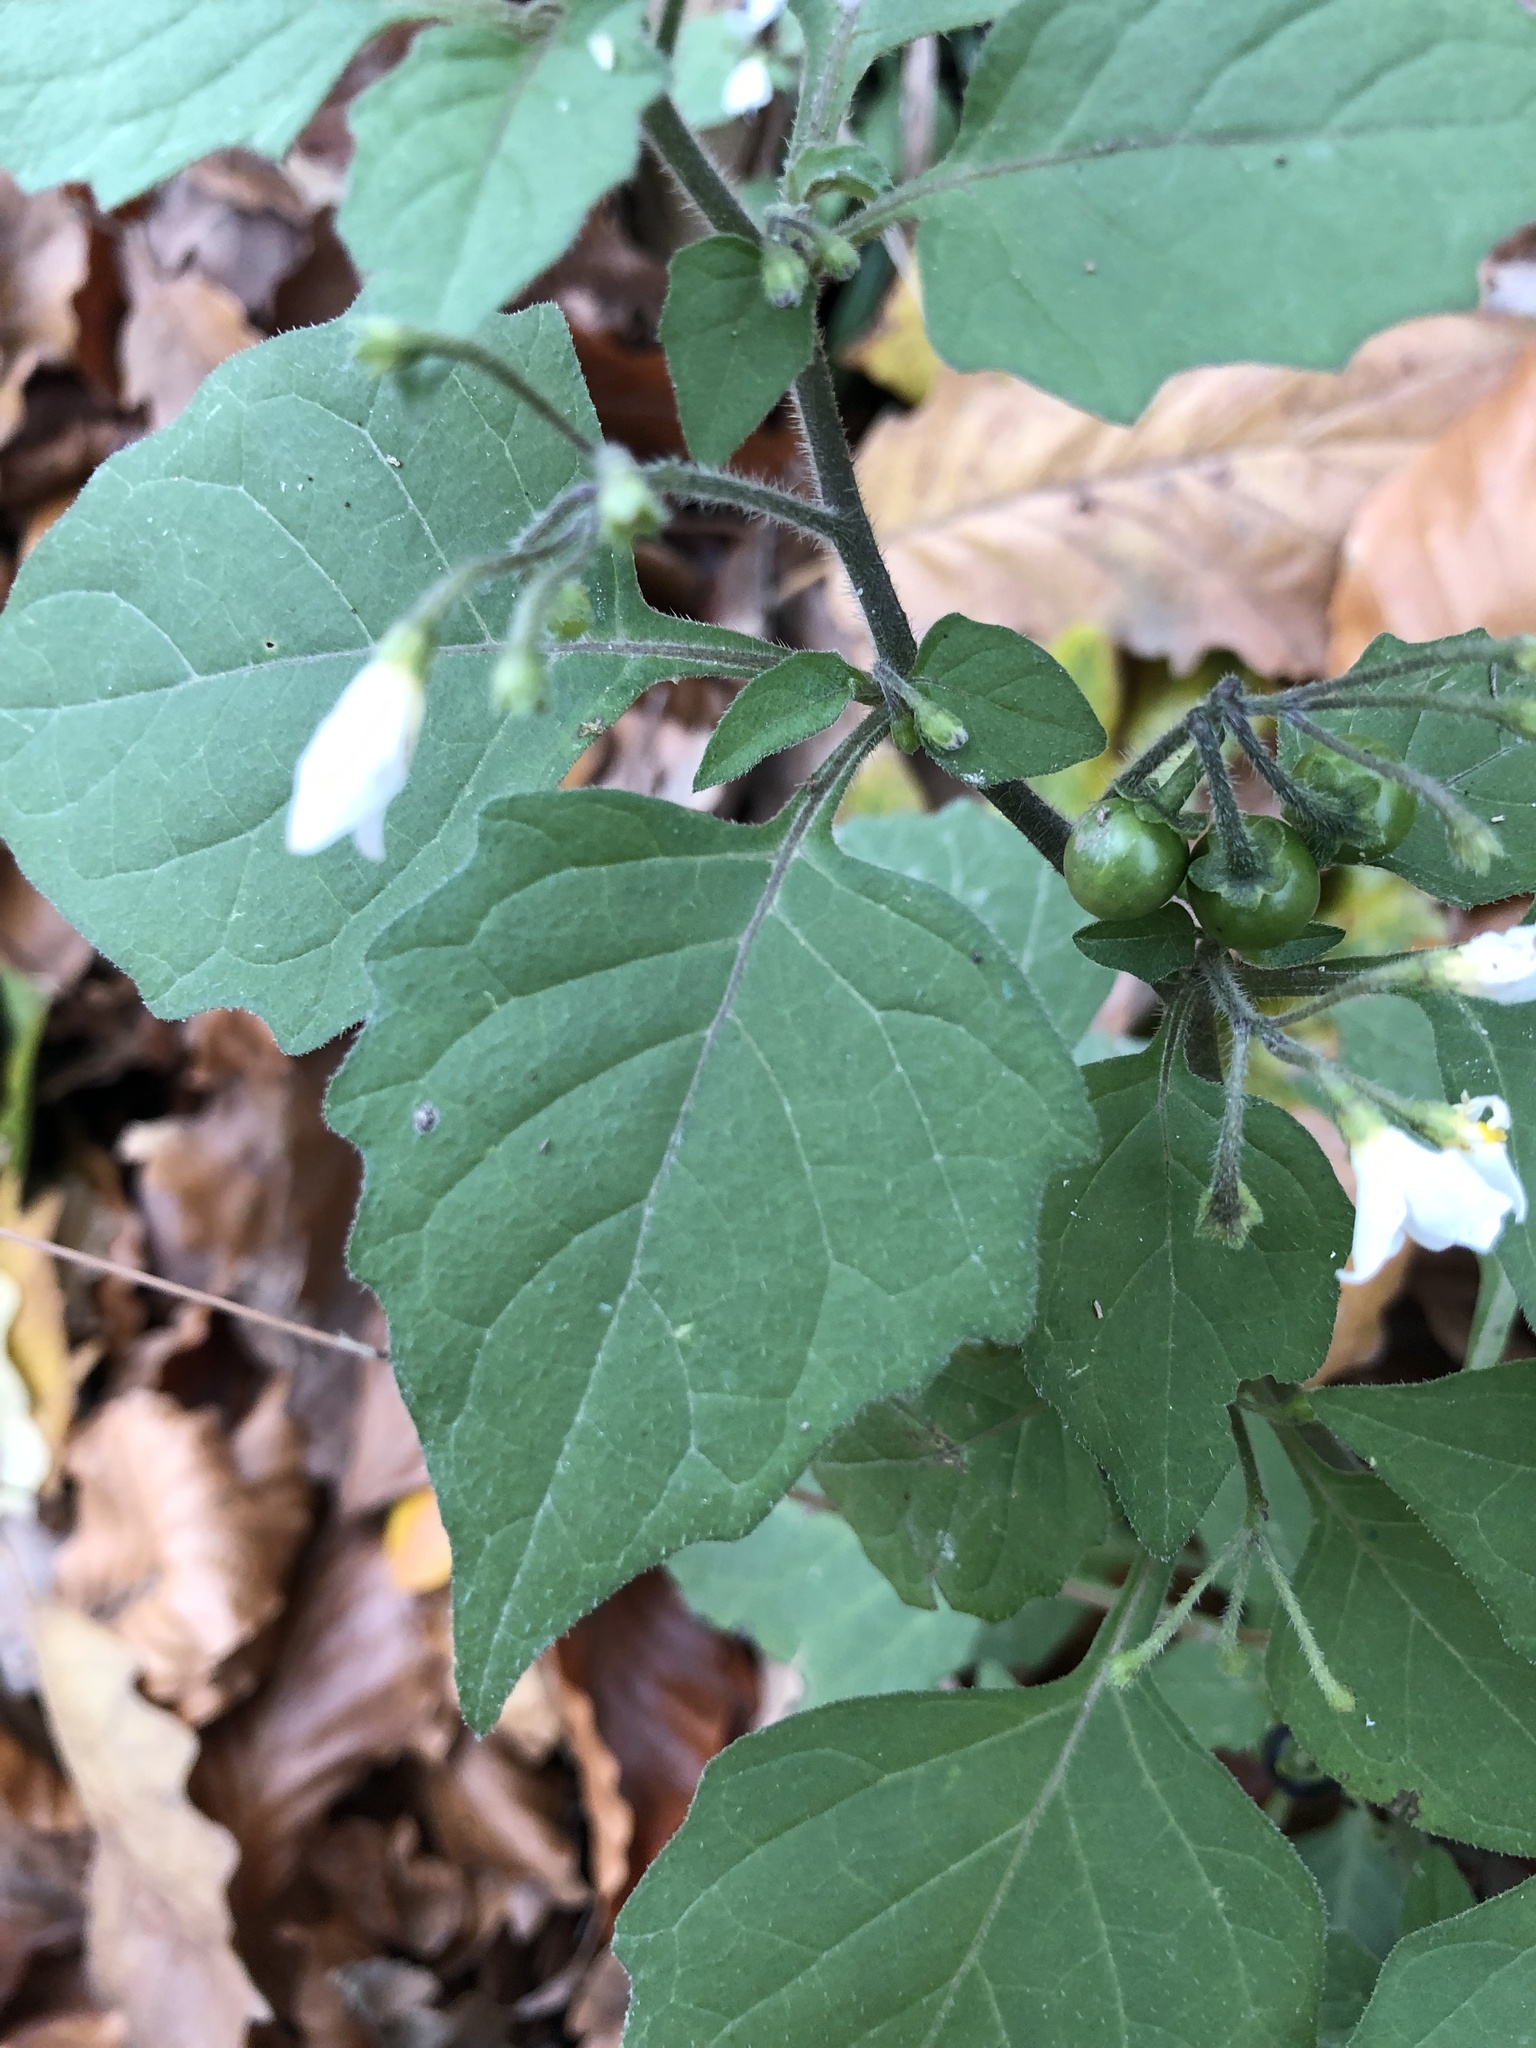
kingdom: Plantae
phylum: Tracheophyta
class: Magnoliopsida
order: Solanales
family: Solanaceae
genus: Solanum
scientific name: Solanum nigrum
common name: Black nightshade
